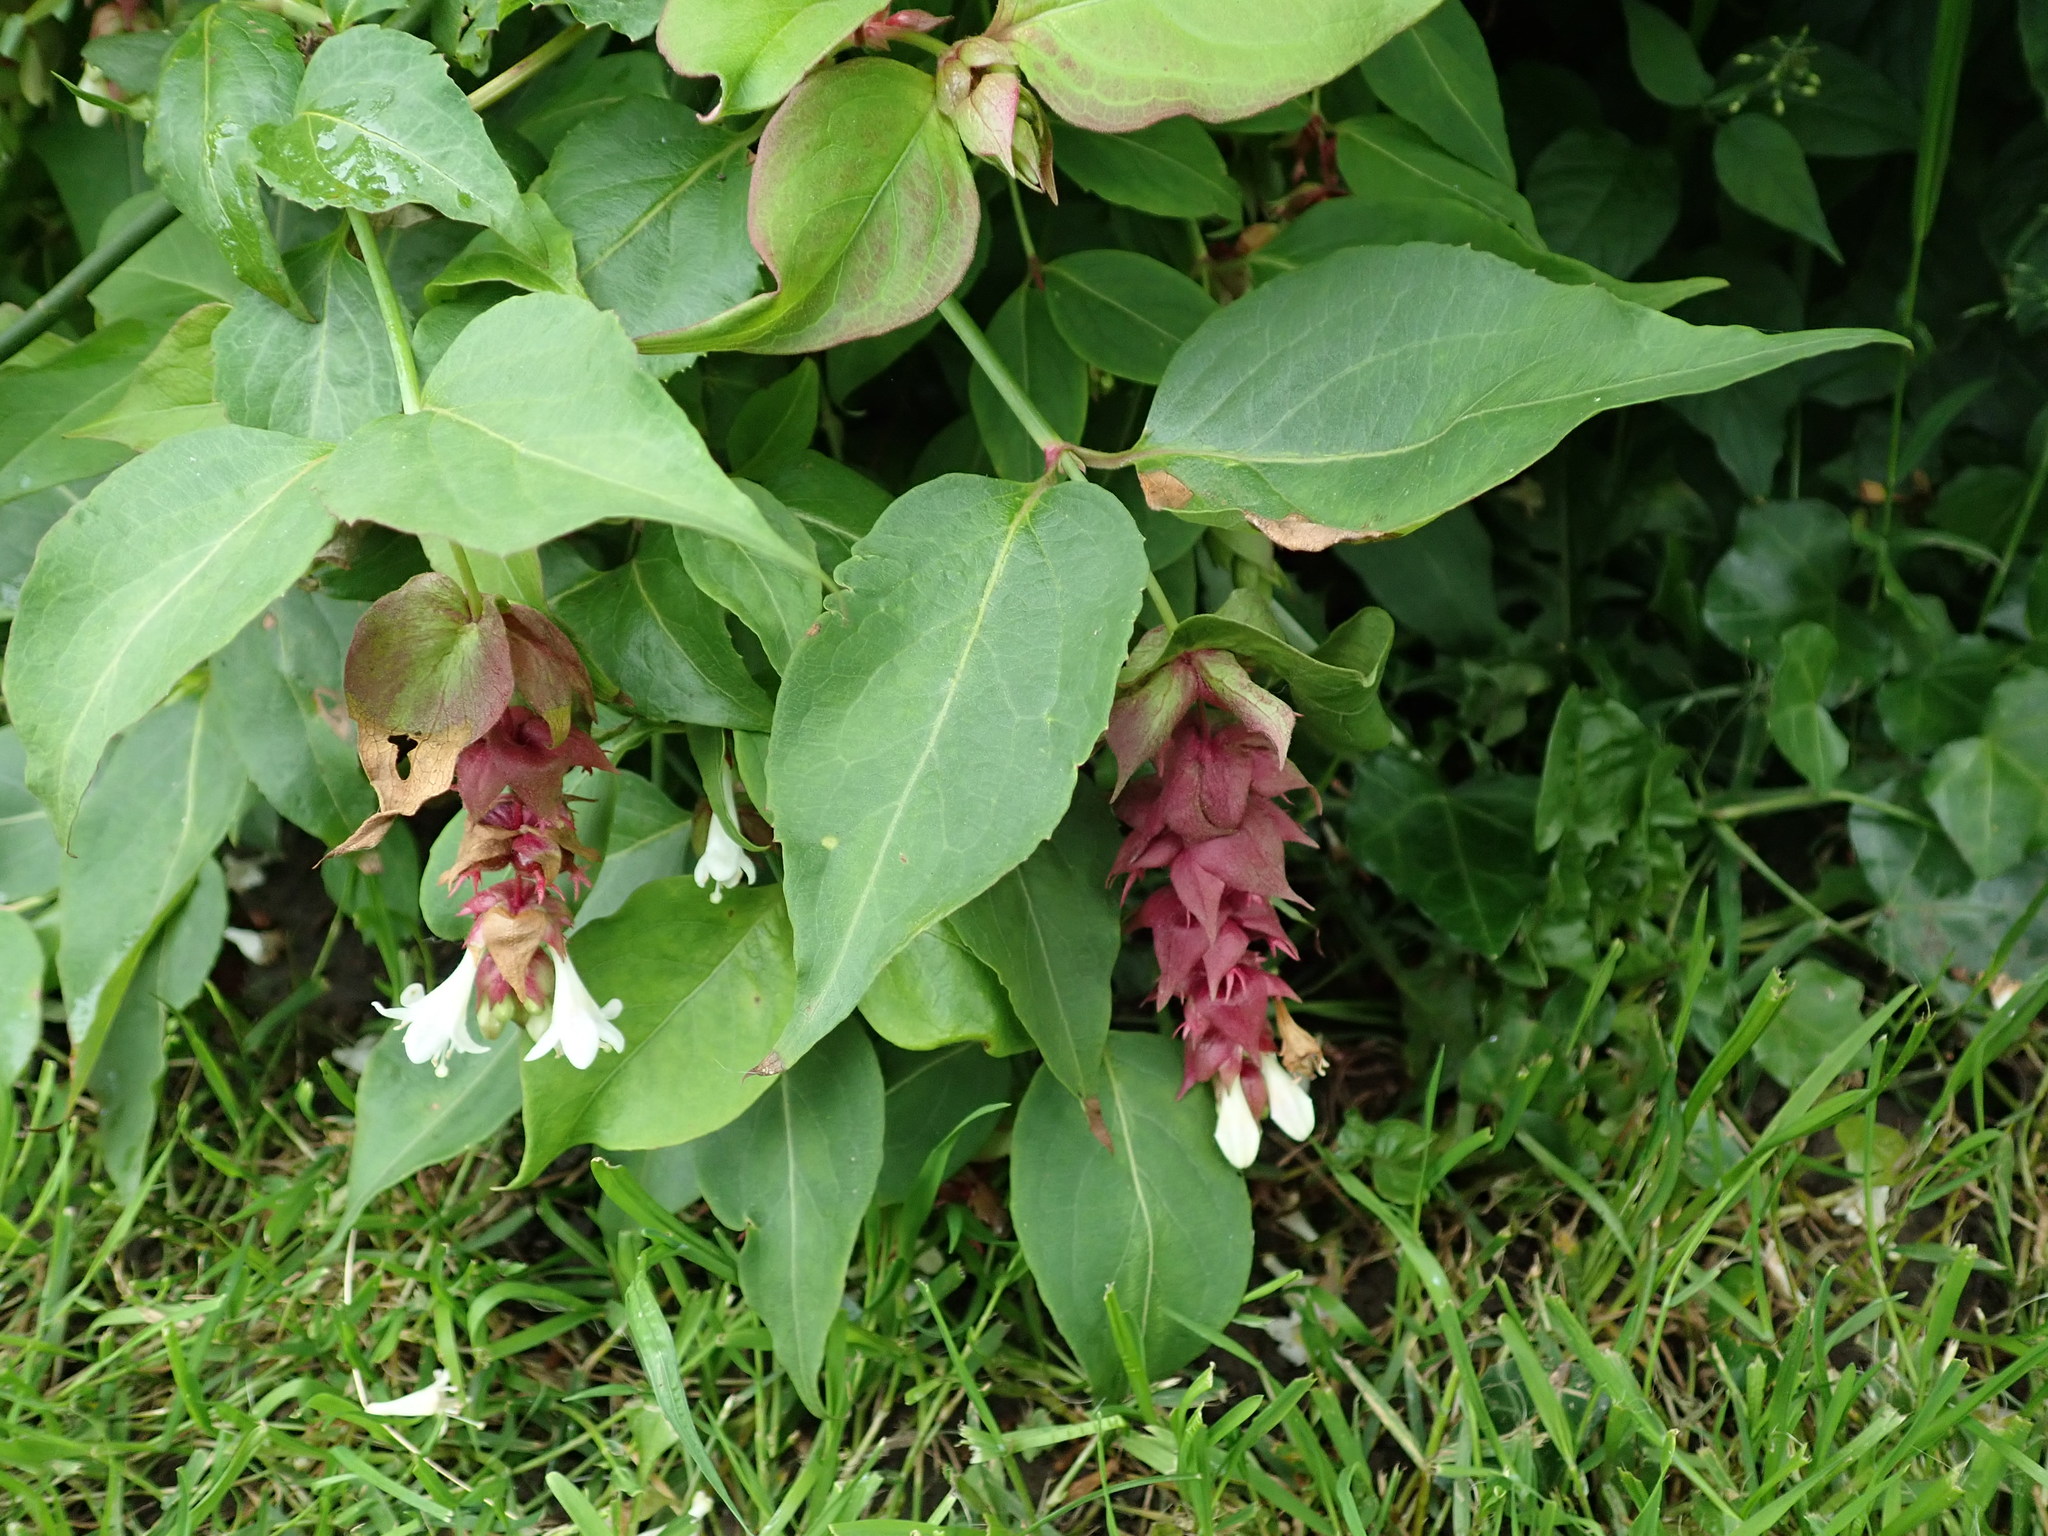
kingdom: Plantae
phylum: Tracheophyta
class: Magnoliopsida
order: Dipsacales
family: Caprifoliaceae
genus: Leycesteria
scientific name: Leycesteria formosa
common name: Himalayan honeysuckle
